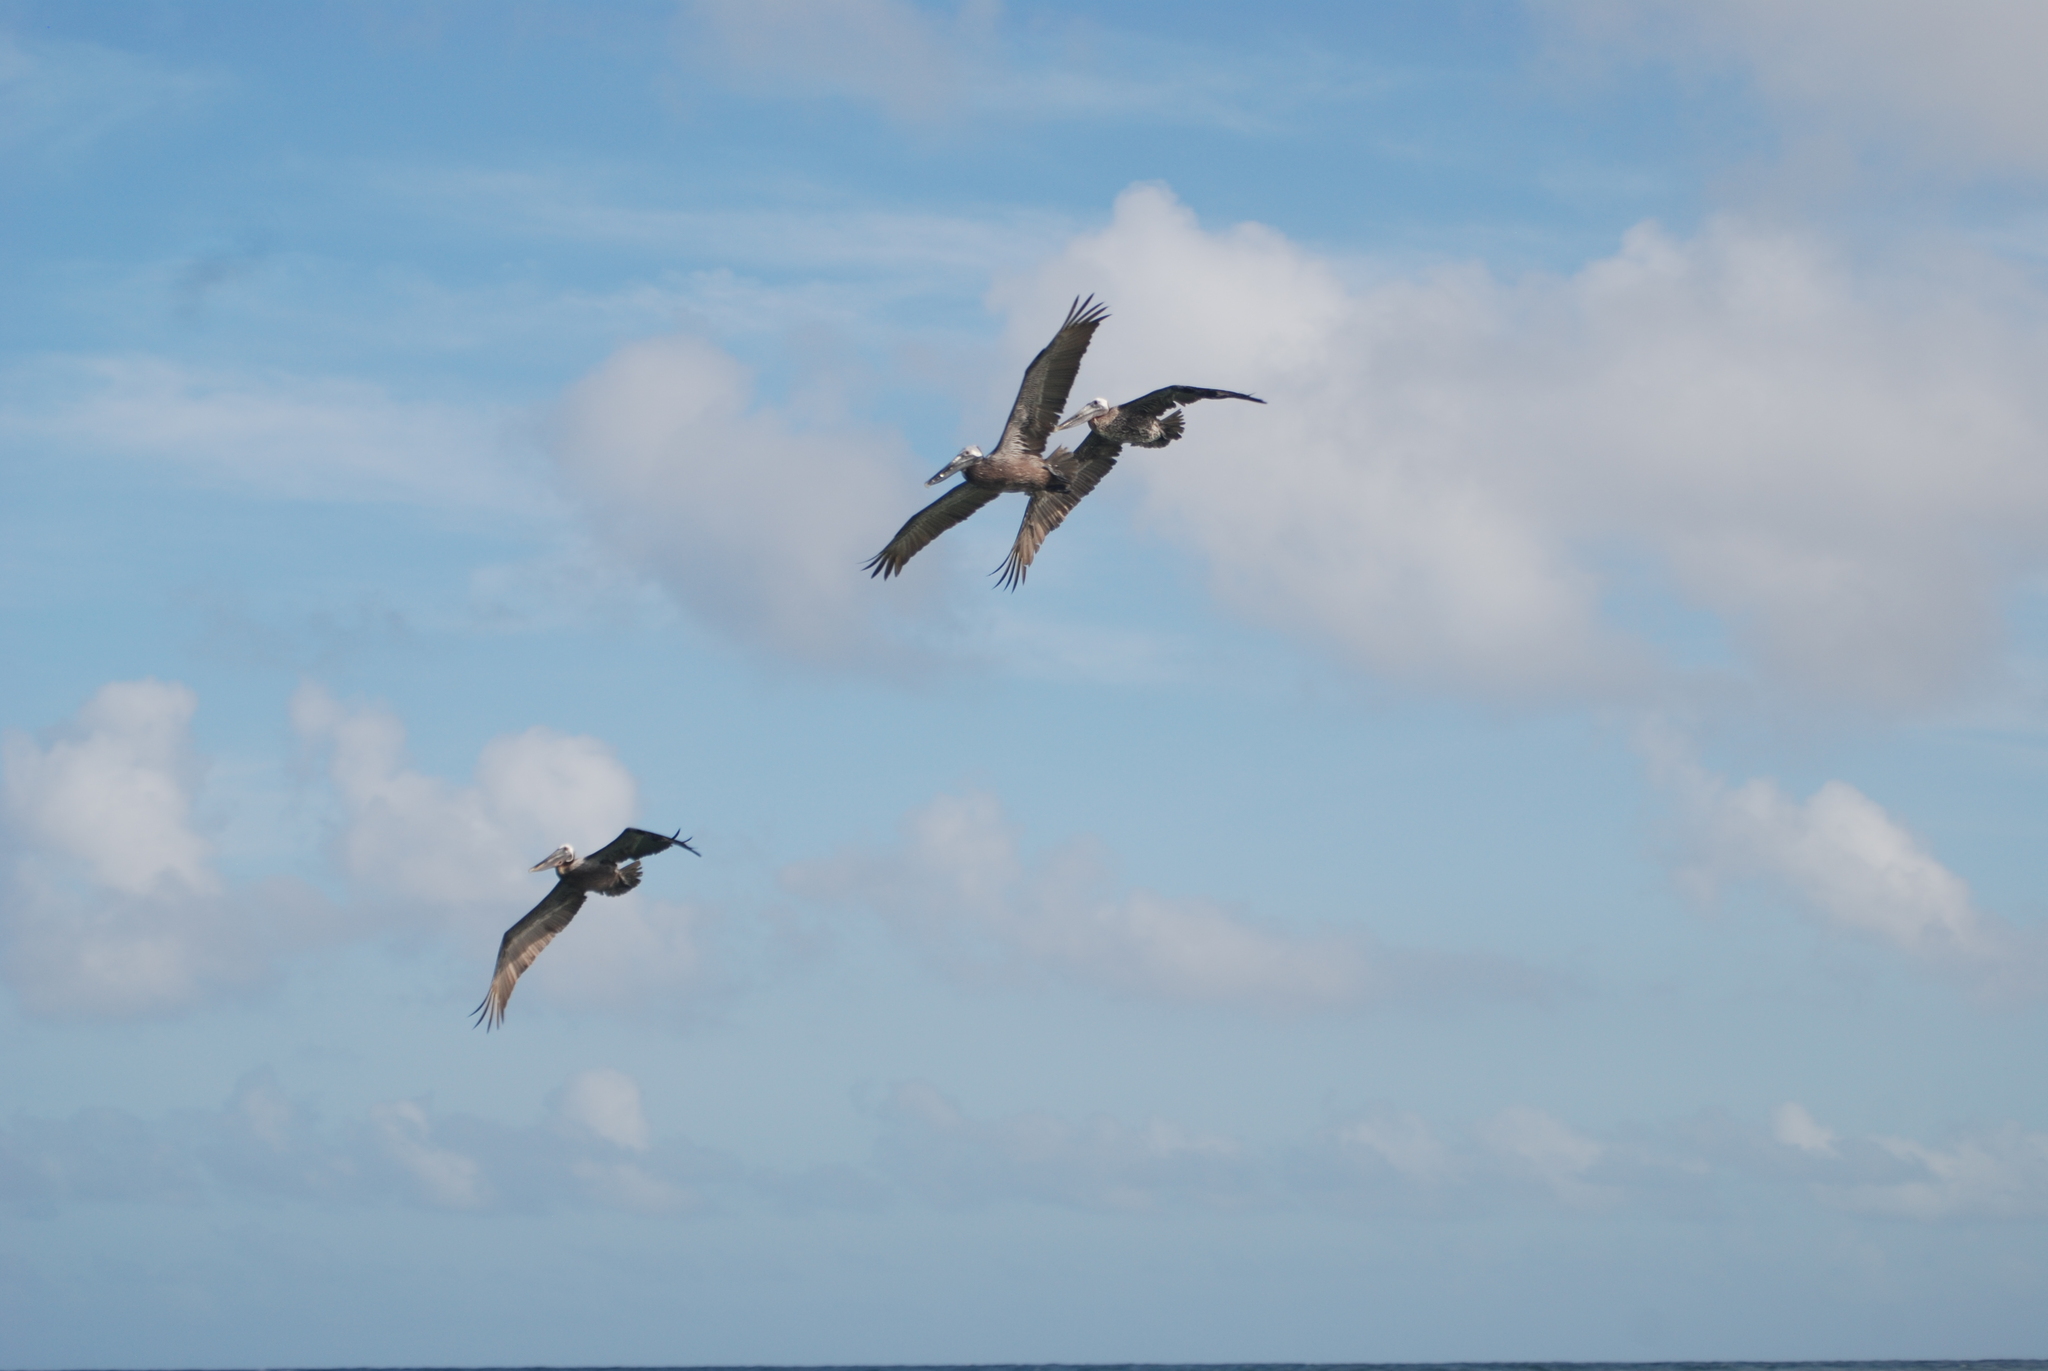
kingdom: Animalia
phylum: Chordata
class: Aves
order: Pelecaniformes
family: Pelecanidae
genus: Pelecanus
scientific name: Pelecanus occidentalis
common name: Brown pelican
